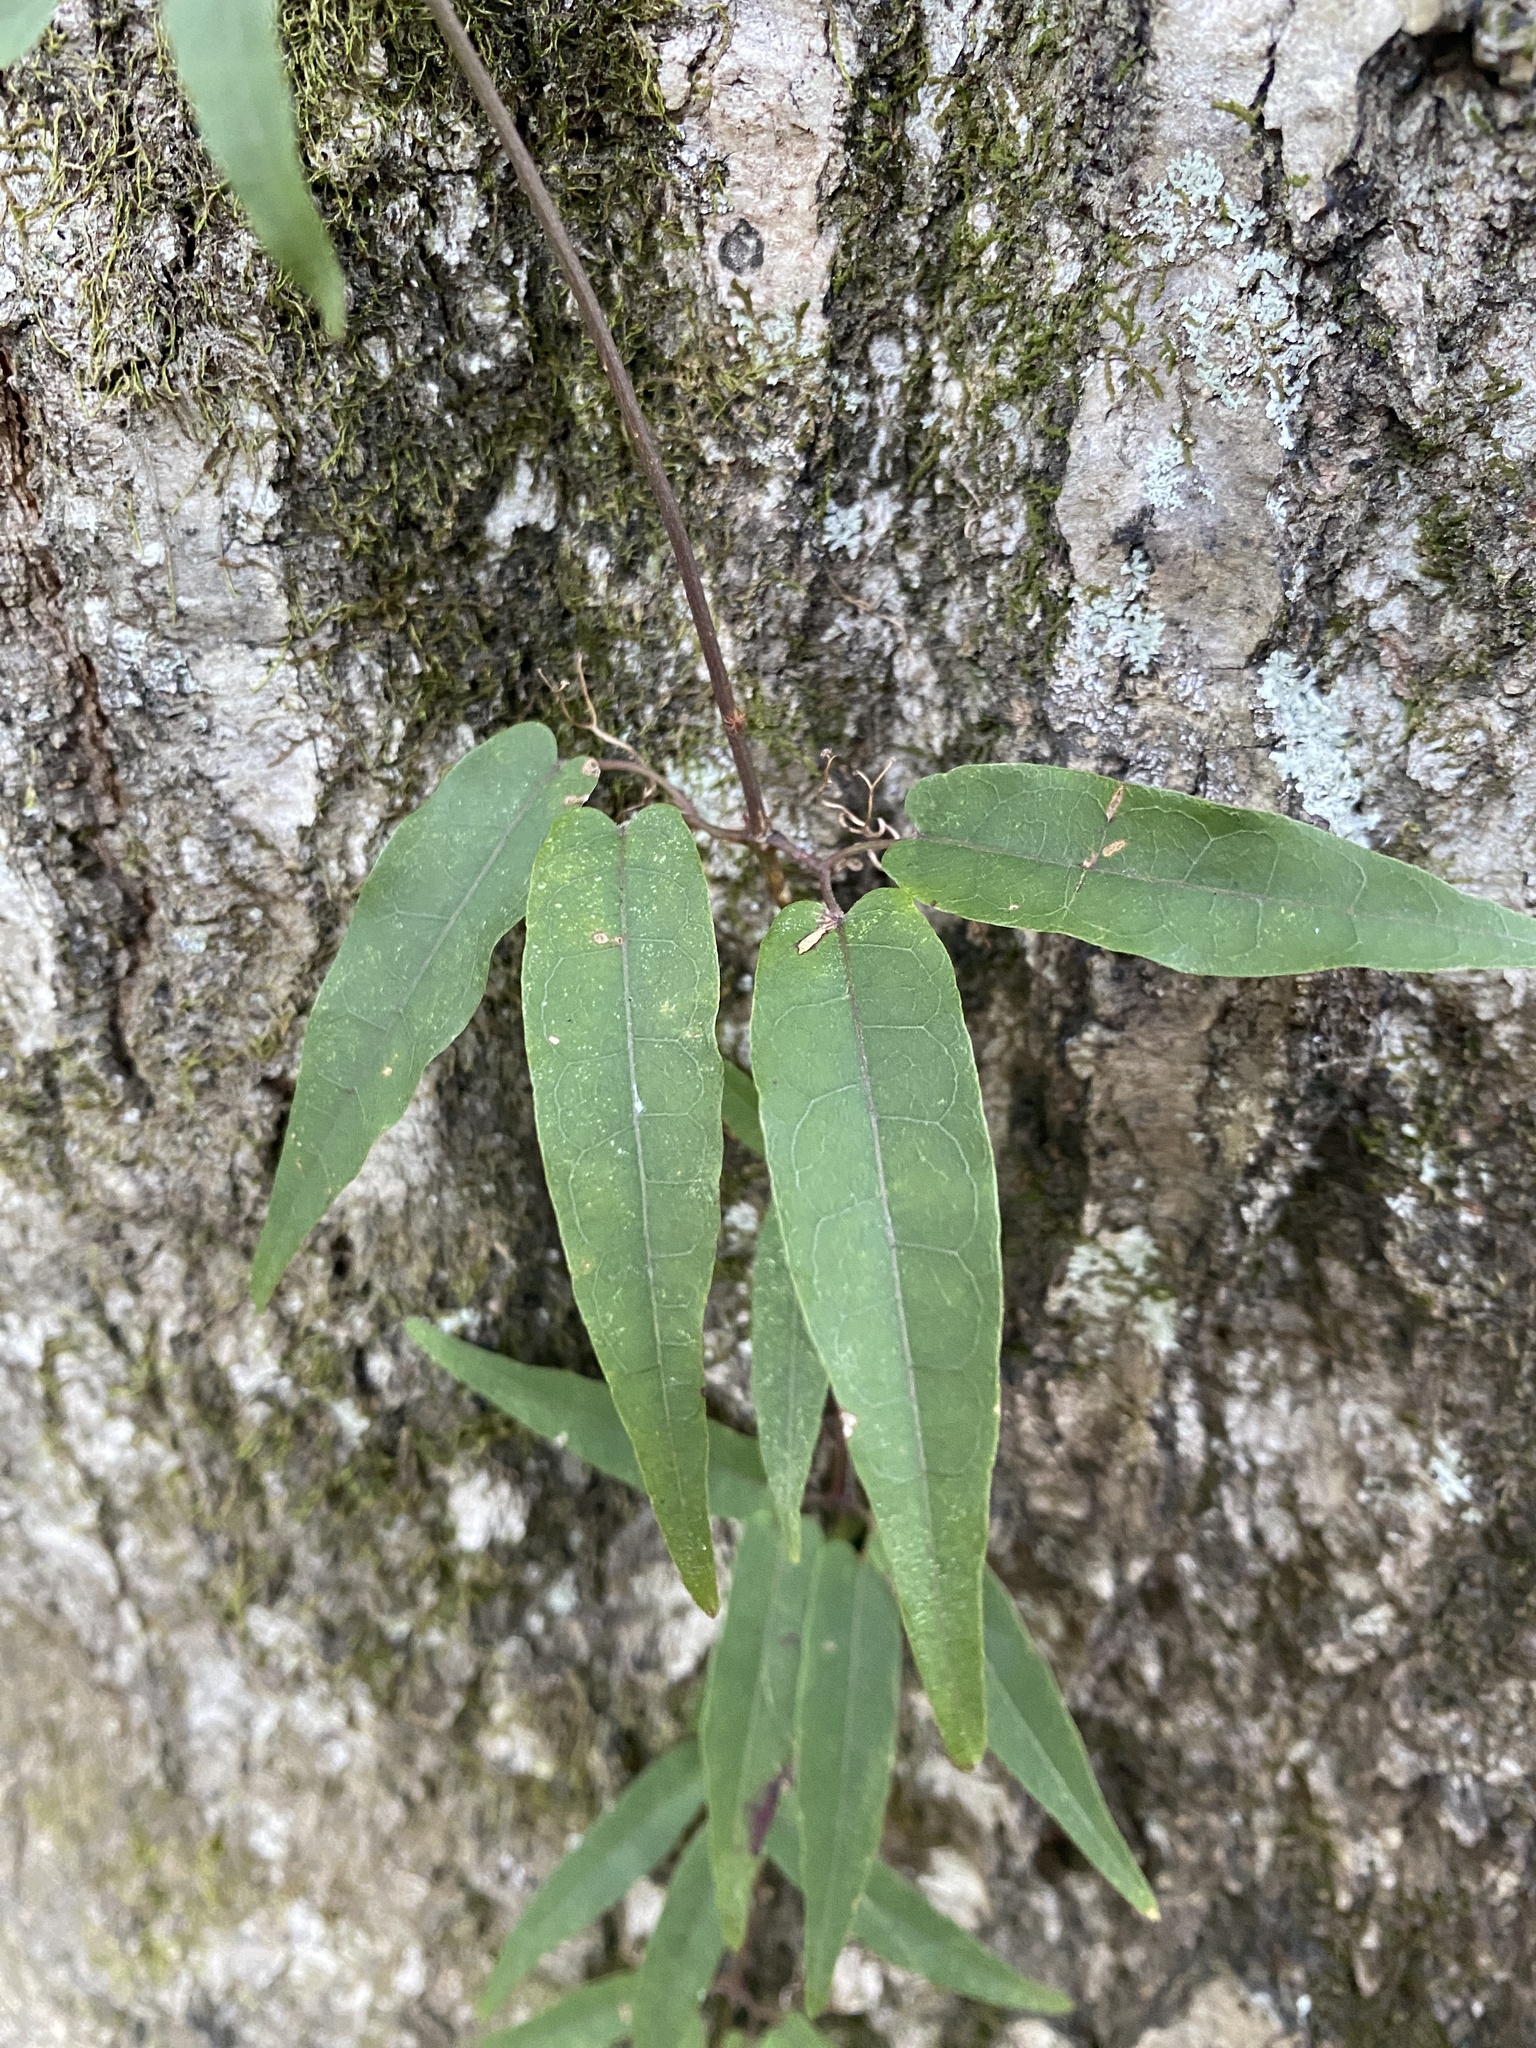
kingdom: Plantae
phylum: Tracheophyta
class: Magnoliopsida
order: Lamiales
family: Bignoniaceae
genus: Bignonia
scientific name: Bignonia capreolata
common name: Crossvine
